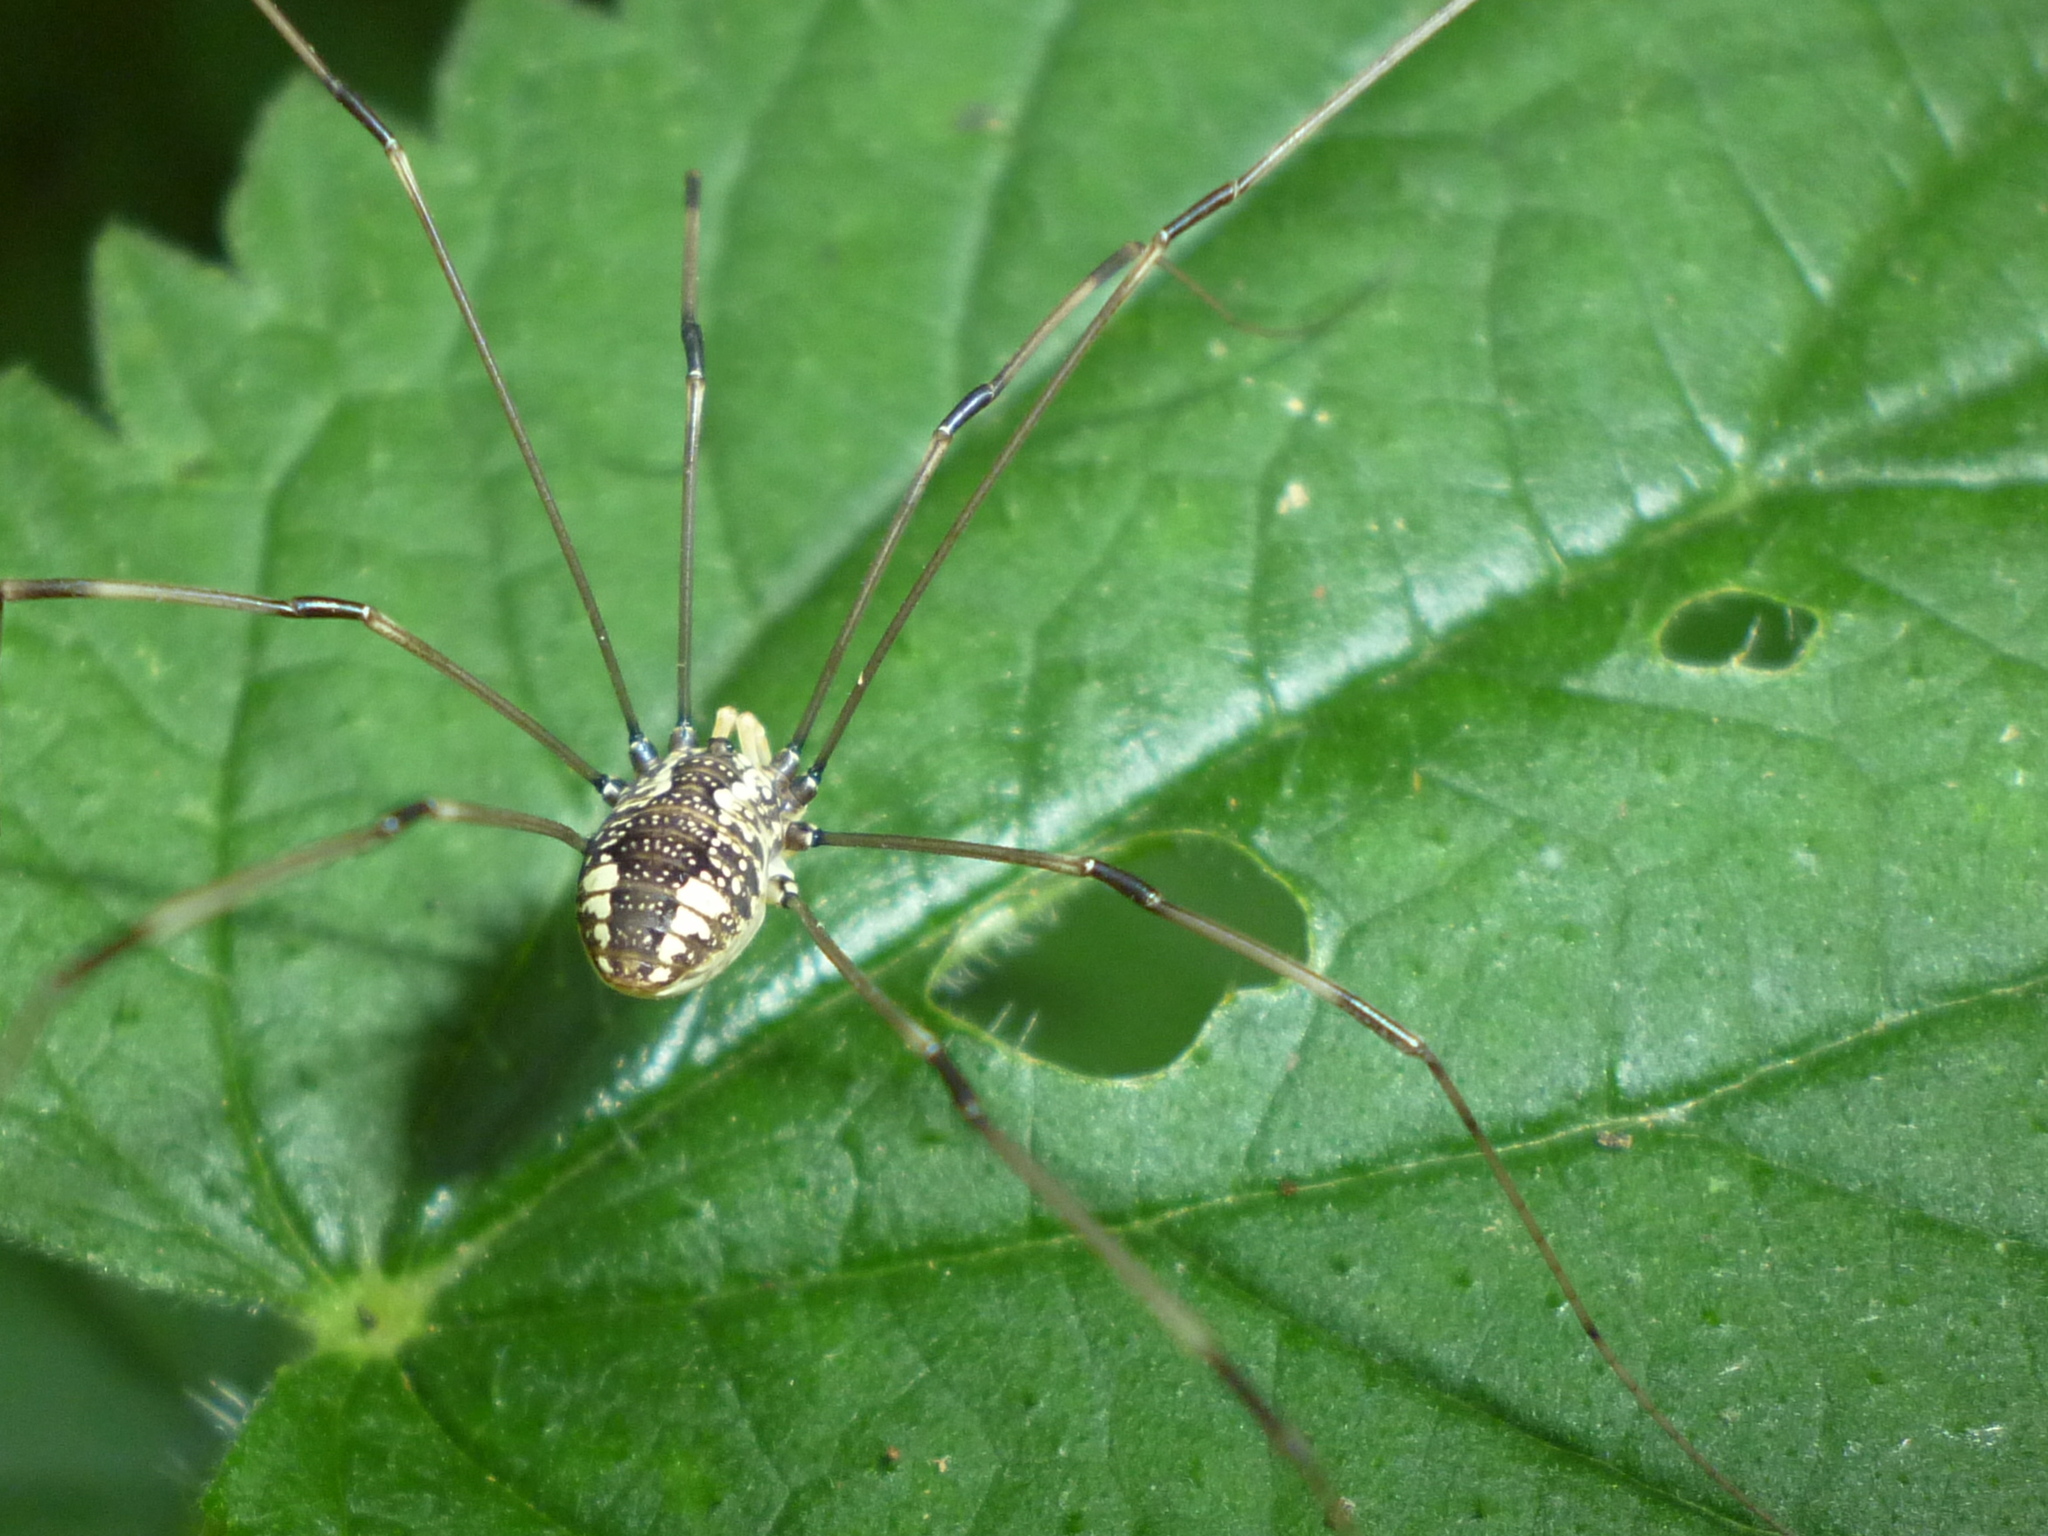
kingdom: Animalia
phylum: Arthropoda
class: Arachnida
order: Opiliones
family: Sclerosomatidae
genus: Leiobunum
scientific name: Leiobunum vittatum
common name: Eastern harvestman
